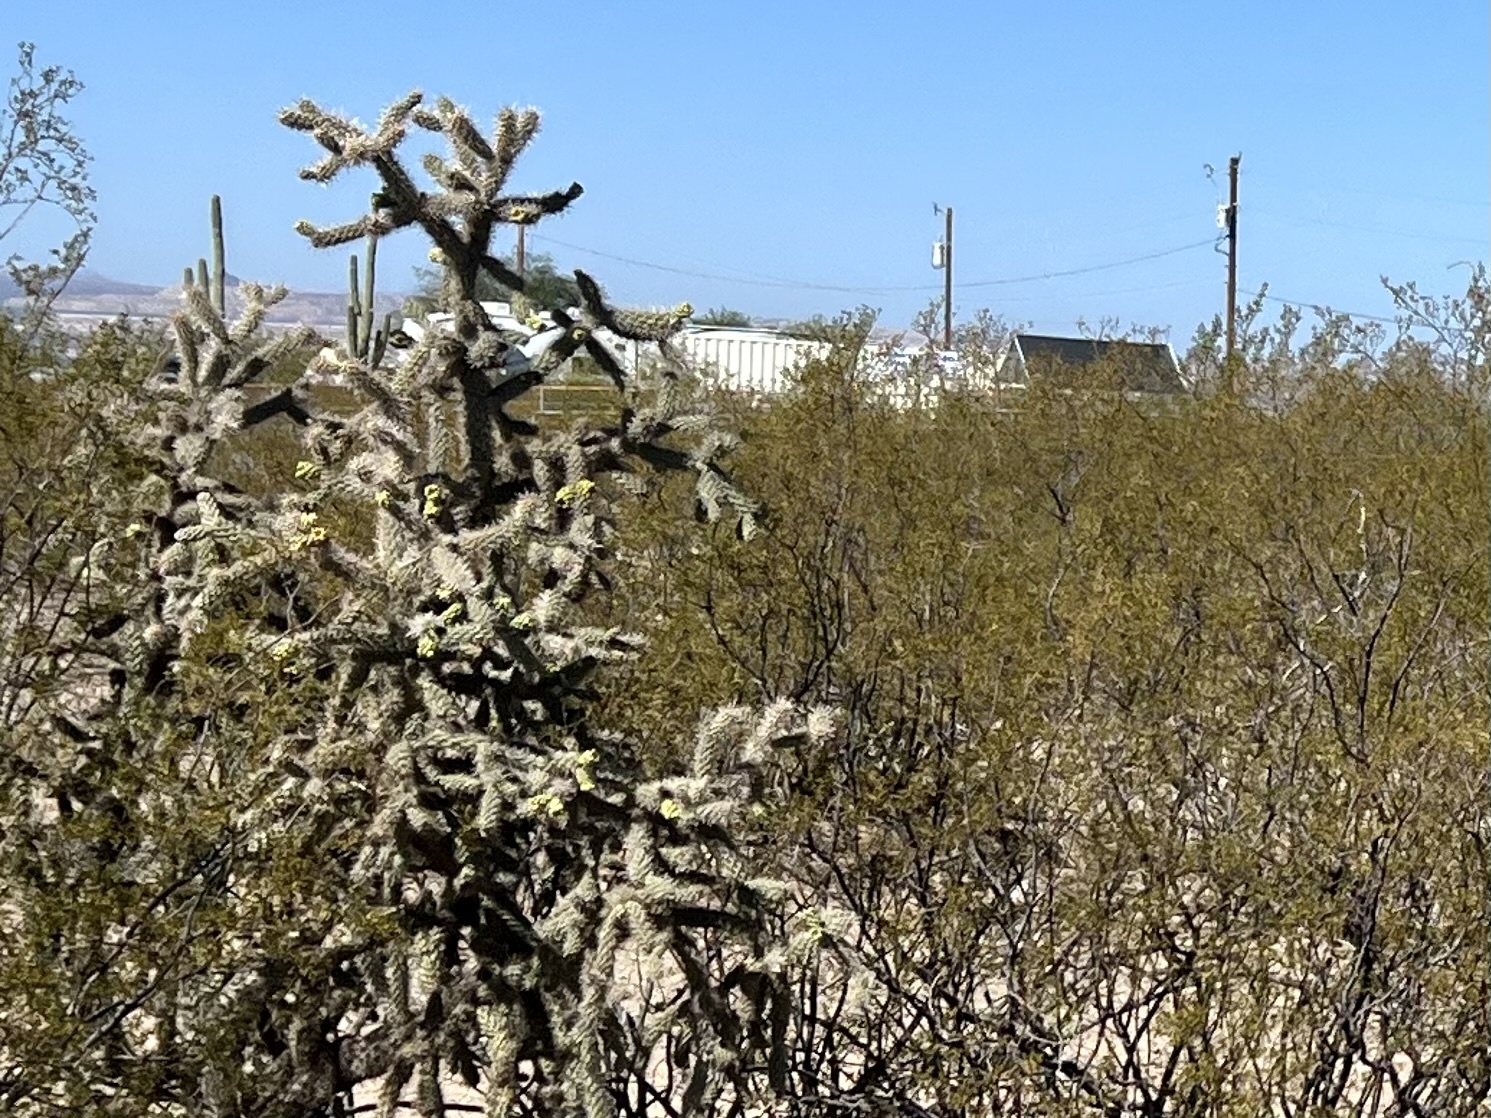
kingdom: Plantae
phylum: Tracheophyta
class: Magnoliopsida
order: Caryophyllales
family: Cactaceae
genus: Cylindropuntia
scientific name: Cylindropuntia imbricata
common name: Candelabrum cactus
